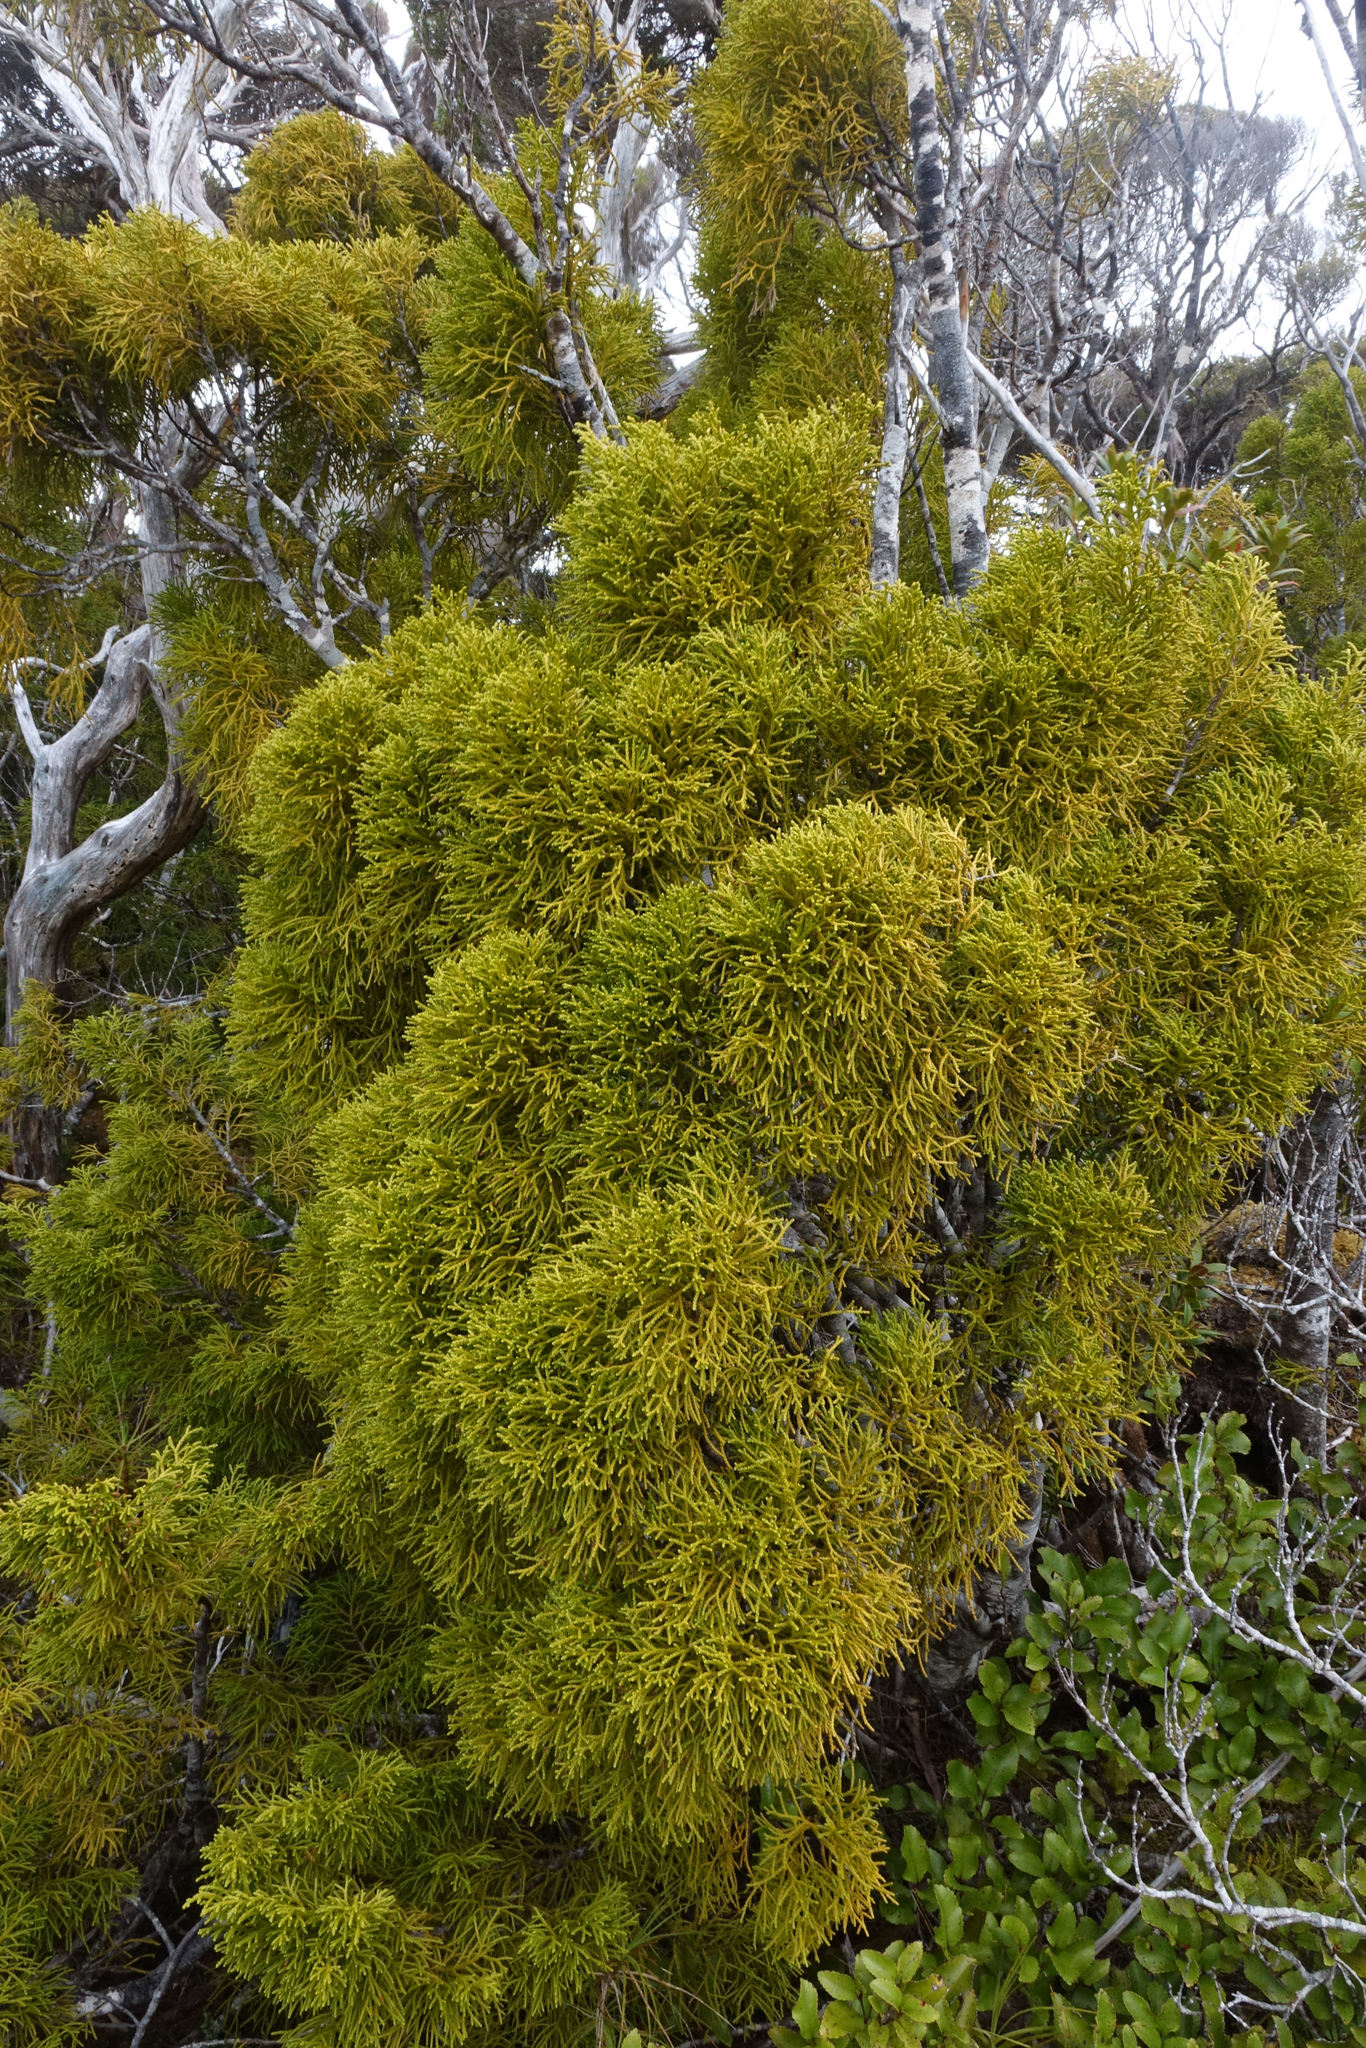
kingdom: Plantae
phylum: Tracheophyta
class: Pinopsida
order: Pinales
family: Podocarpaceae
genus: Lepidothamnus
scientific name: Lepidothamnus intermedius
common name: Yellow silver pine
